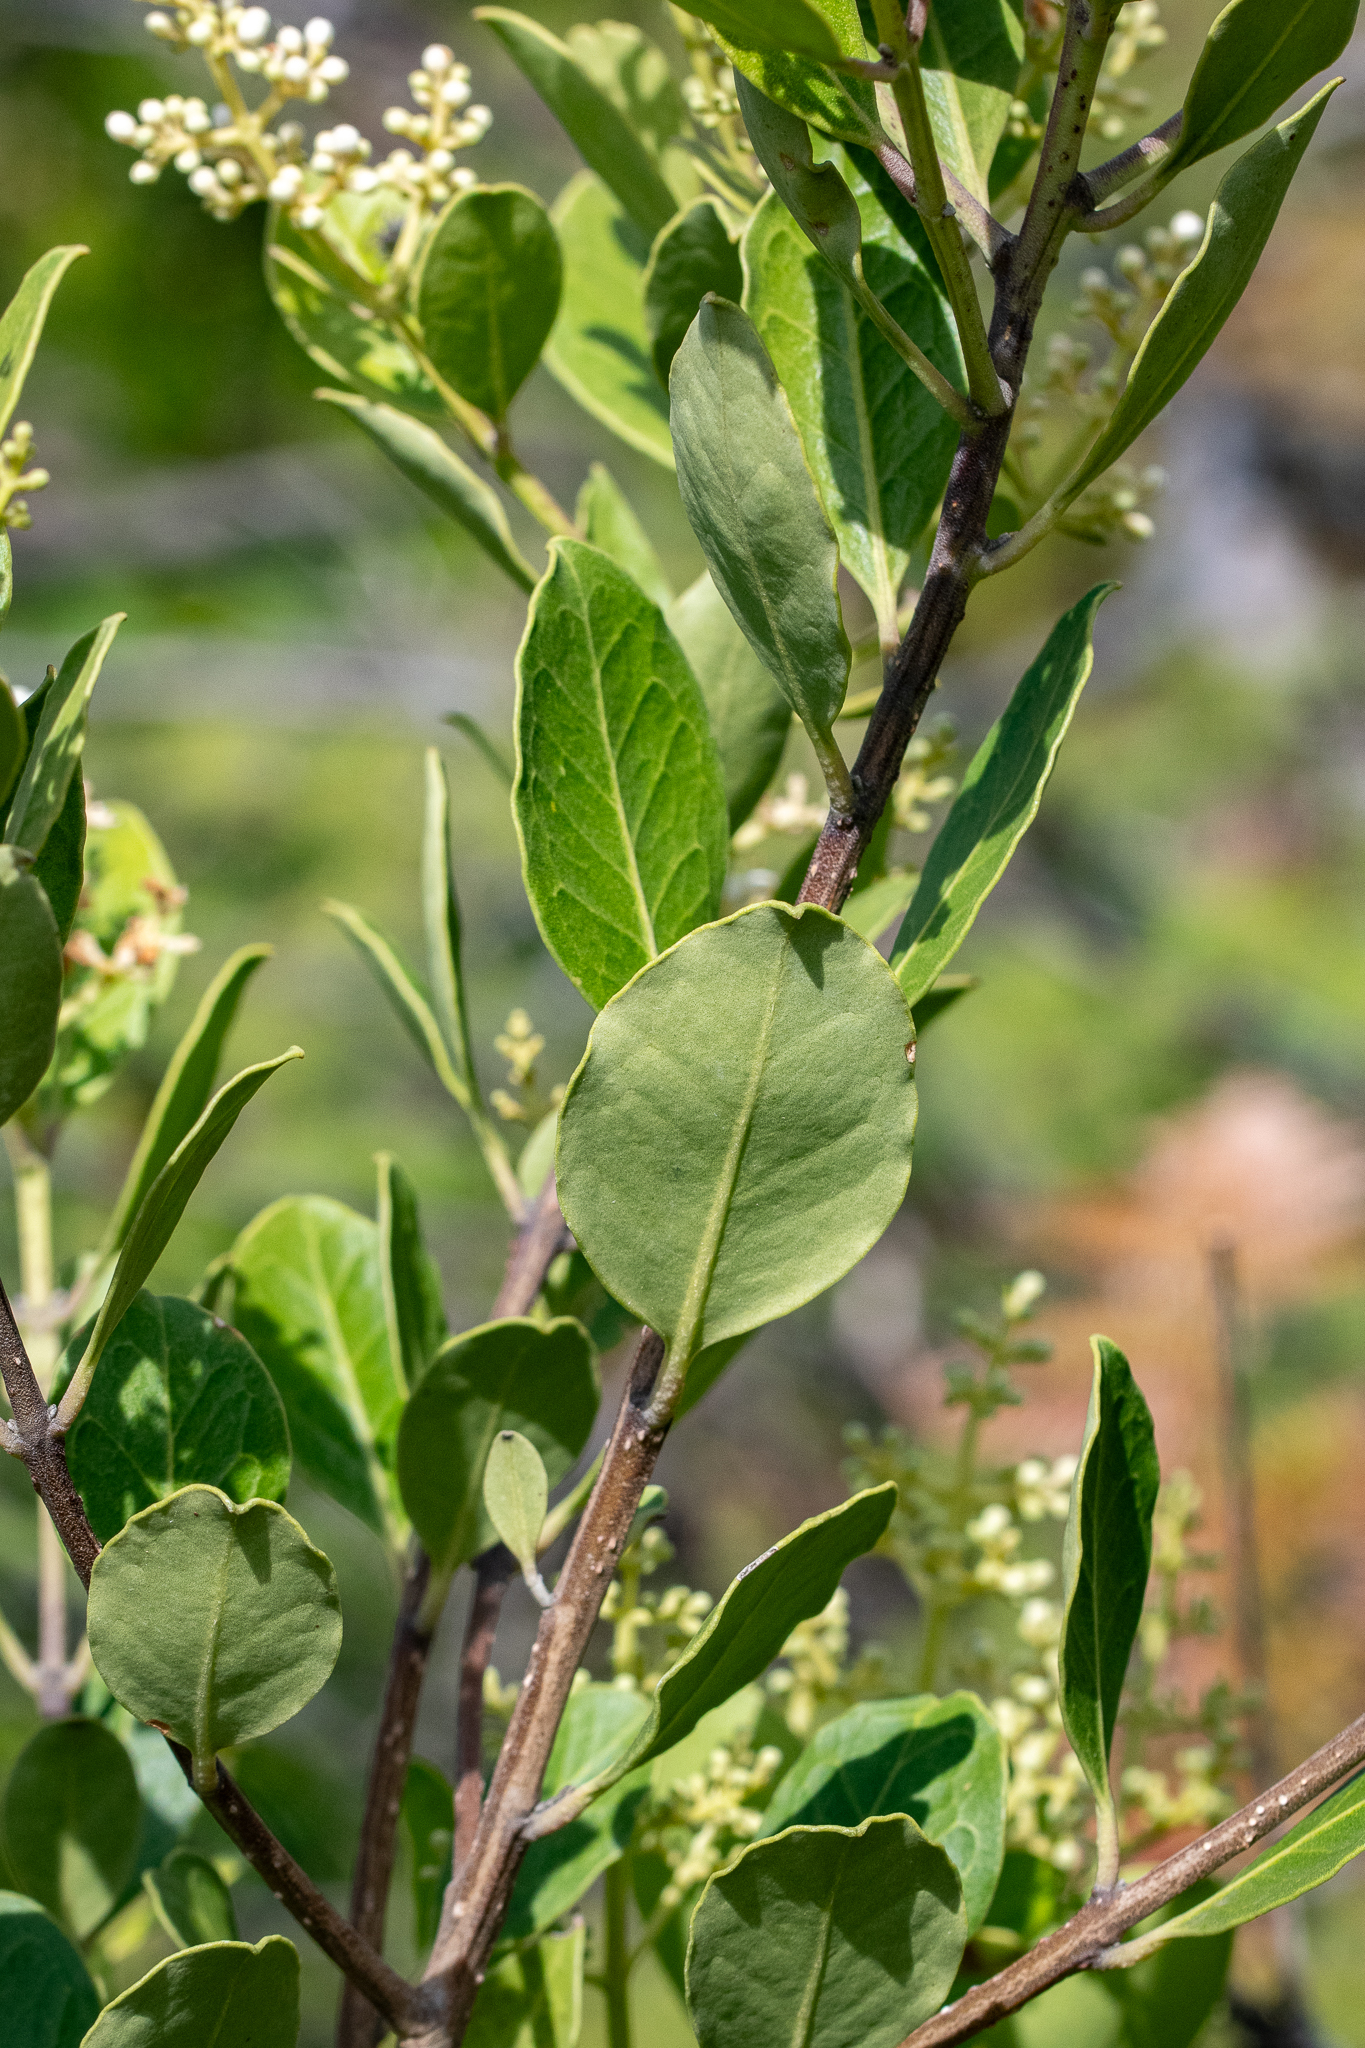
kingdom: Plantae
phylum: Tracheophyta
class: Magnoliopsida
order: Lamiales
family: Oleaceae
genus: Olea
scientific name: Olea capensis
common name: Black ironwood
